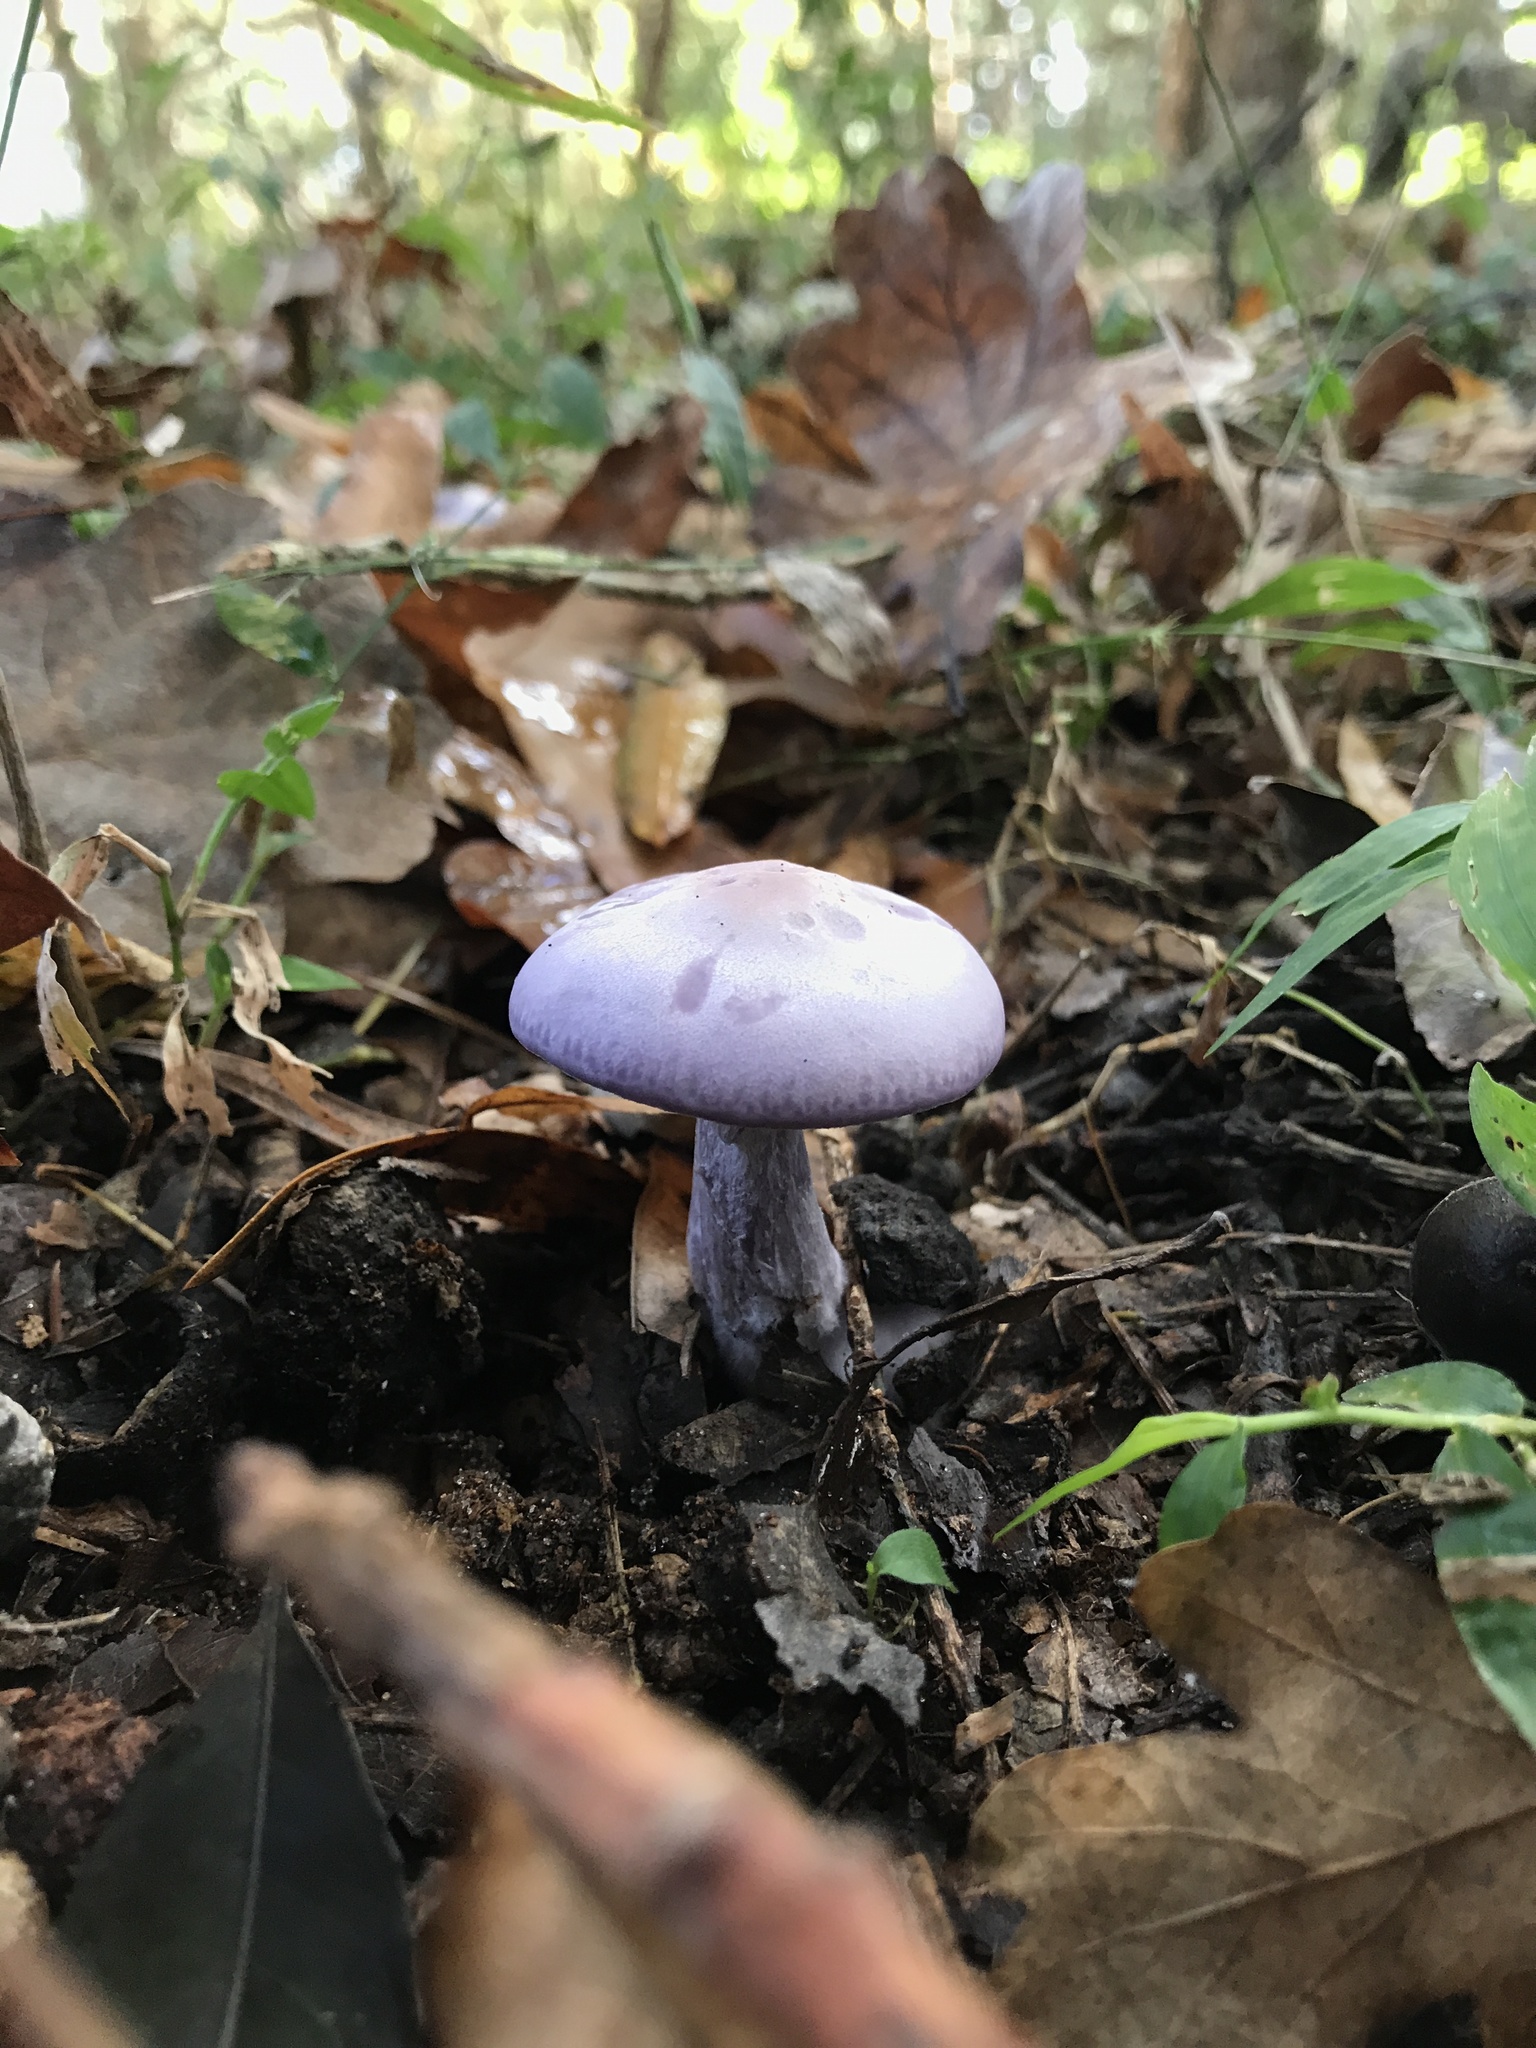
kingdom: Fungi
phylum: Basidiomycota
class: Agaricomycetes
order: Agaricales
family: Tricholomataceae
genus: Collybia
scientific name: Collybia
